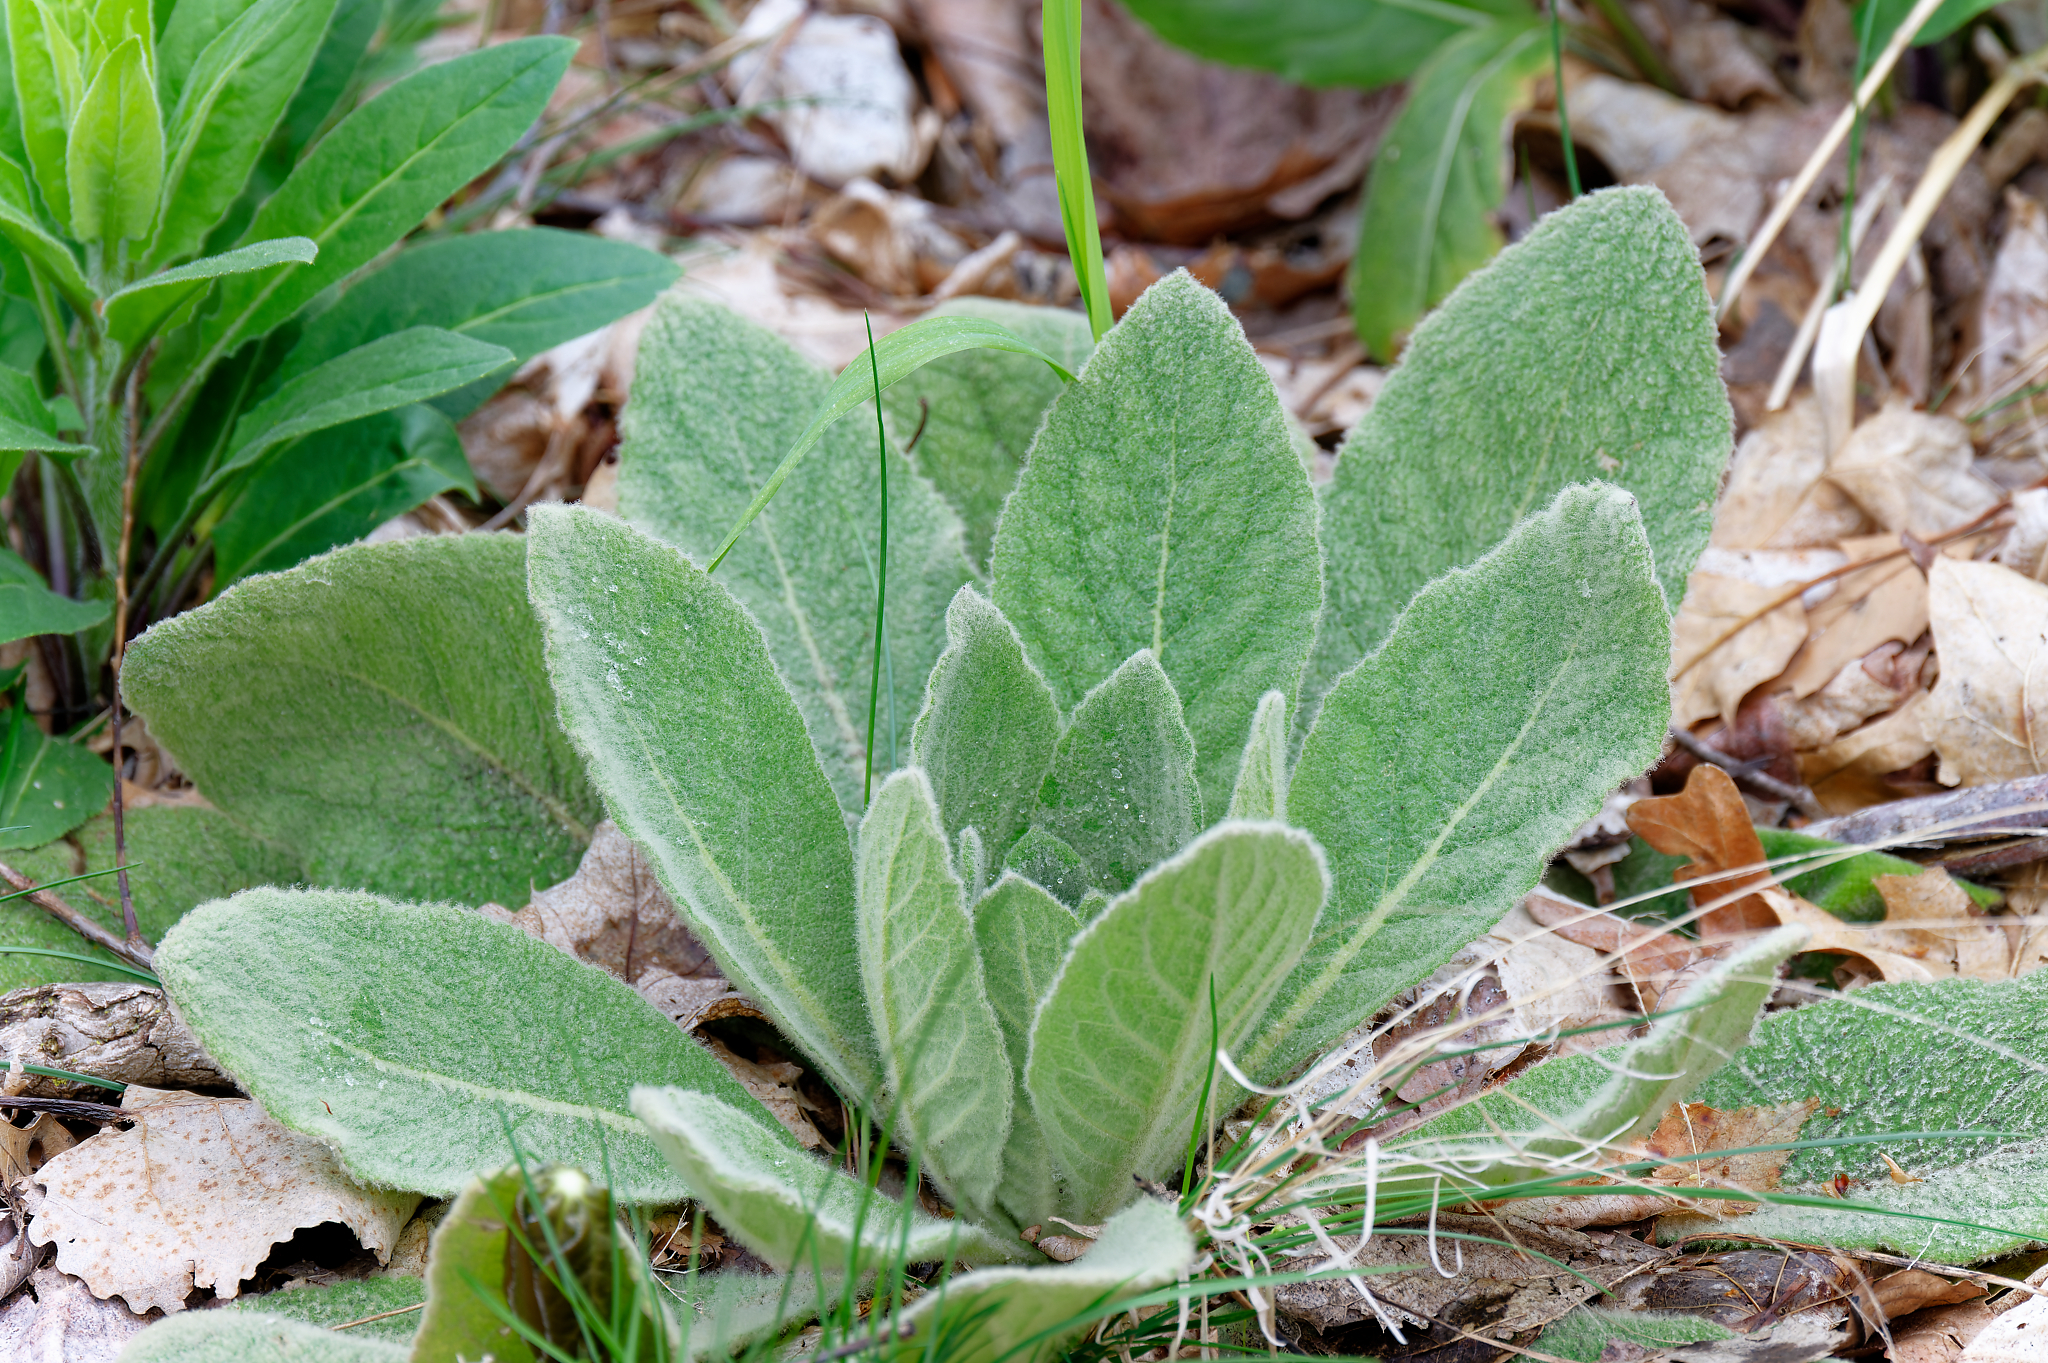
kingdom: Plantae
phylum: Tracheophyta
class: Magnoliopsida
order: Lamiales
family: Scrophulariaceae
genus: Verbascum
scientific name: Verbascum thapsus
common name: Common mullein
